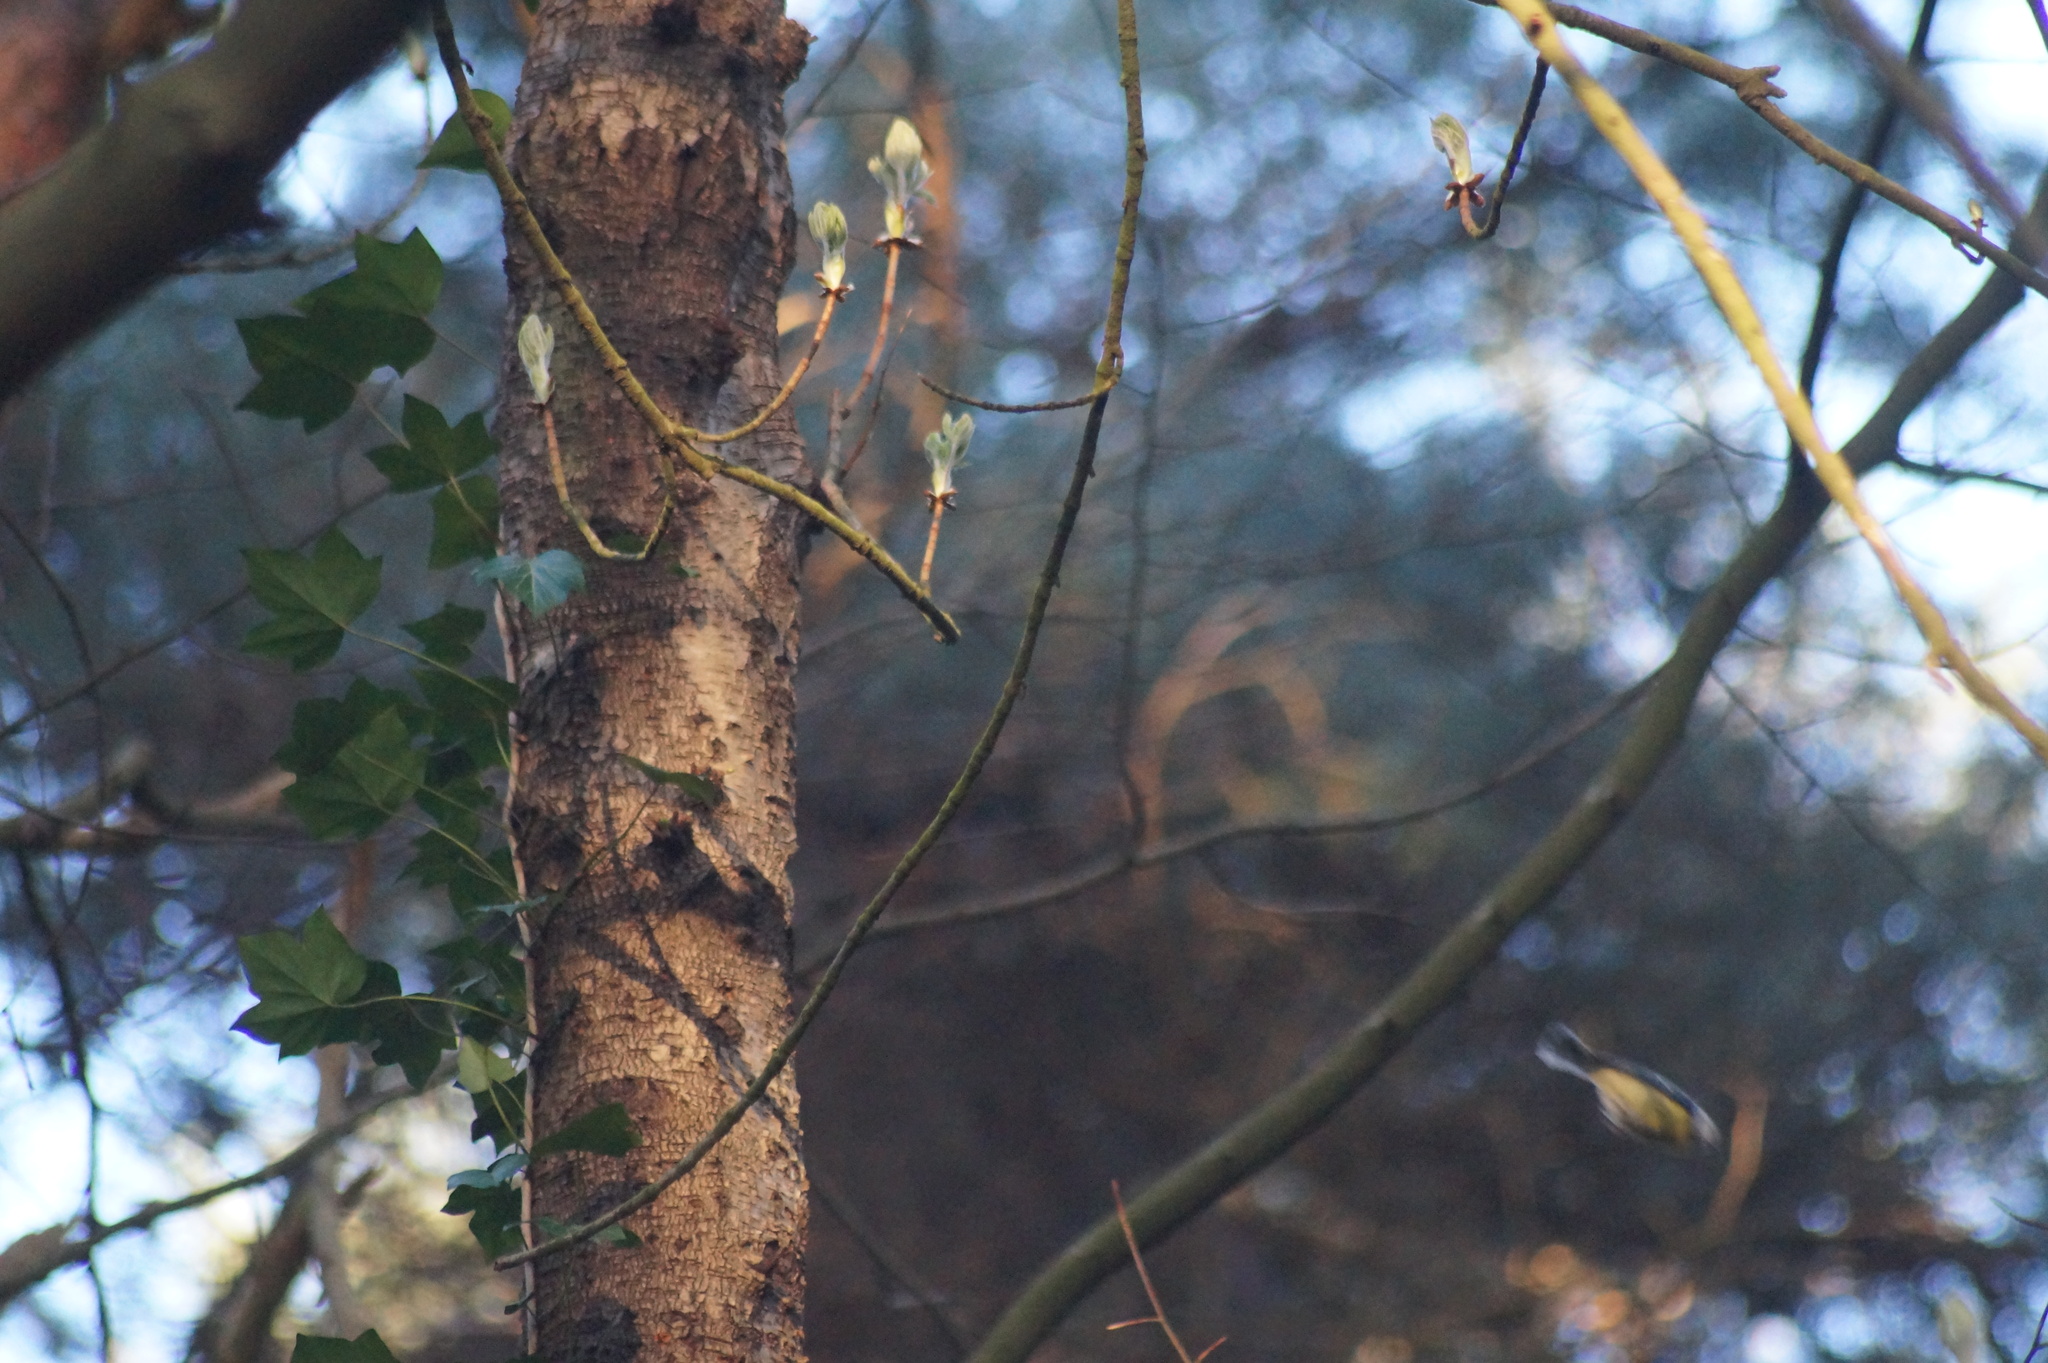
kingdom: Animalia
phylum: Chordata
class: Aves
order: Passeriformes
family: Paridae
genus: Cyanistes
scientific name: Cyanistes caeruleus
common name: Eurasian blue tit
